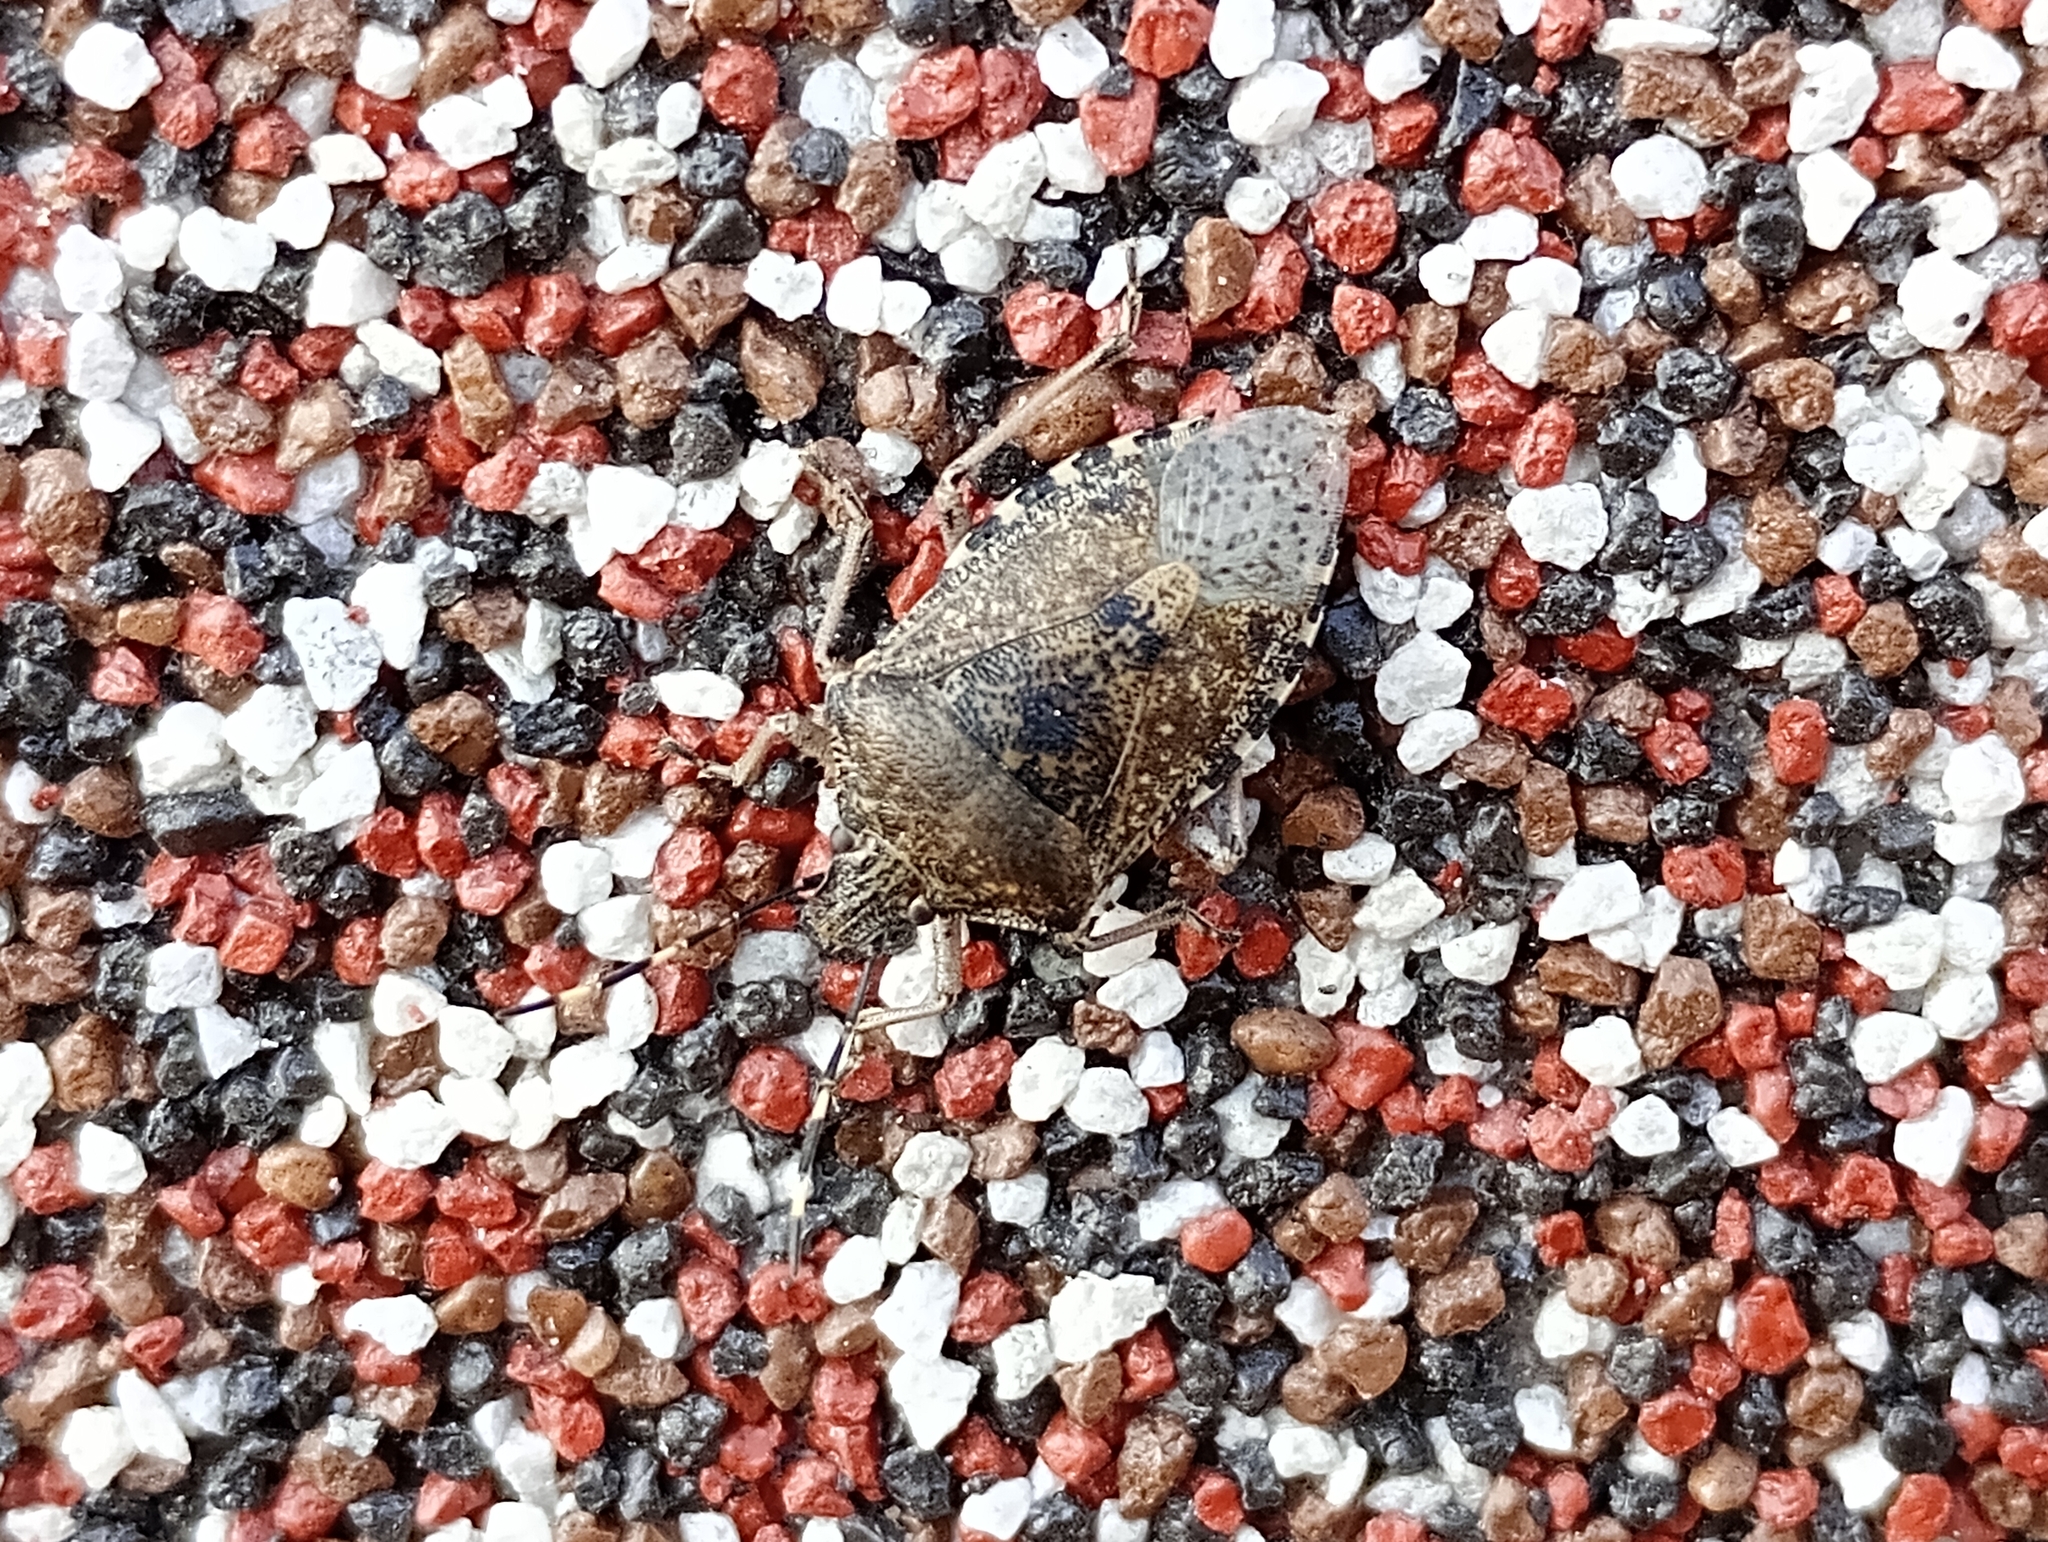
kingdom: Animalia
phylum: Arthropoda
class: Insecta
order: Hemiptera
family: Pentatomidae
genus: Rhaphigaster
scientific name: Rhaphigaster nebulosa
